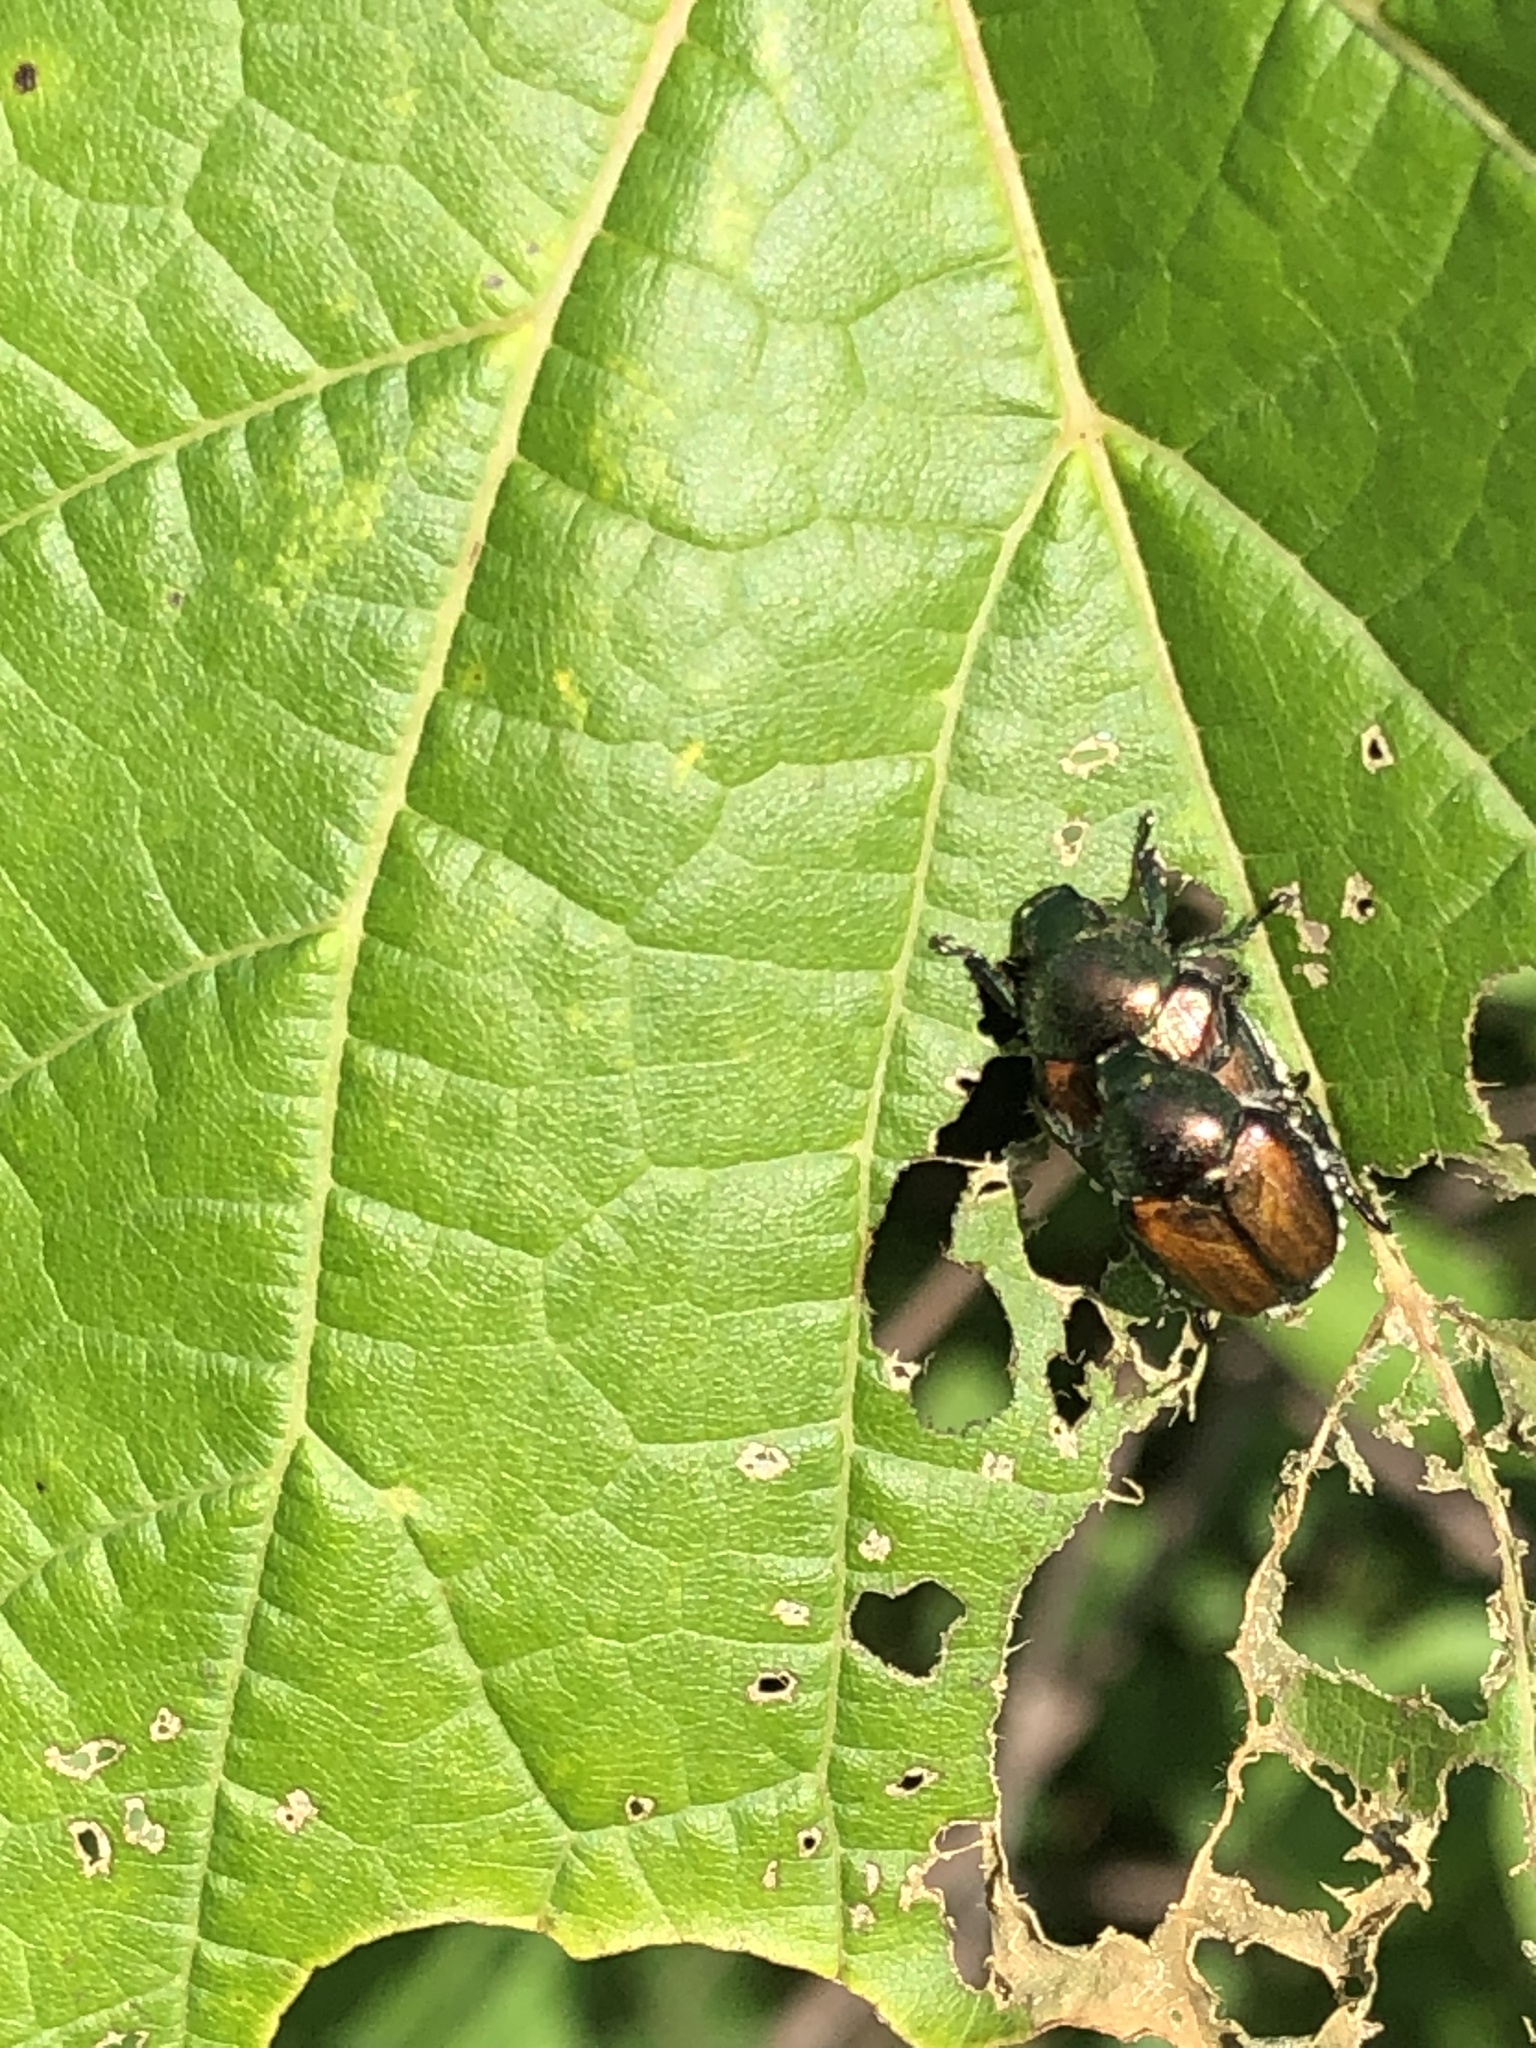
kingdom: Animalia
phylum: Arthropoda
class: Insecta
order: Coleoptera
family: Scarabaeidae
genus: Popillia
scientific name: Popillia japonica
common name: Japanese beetle
